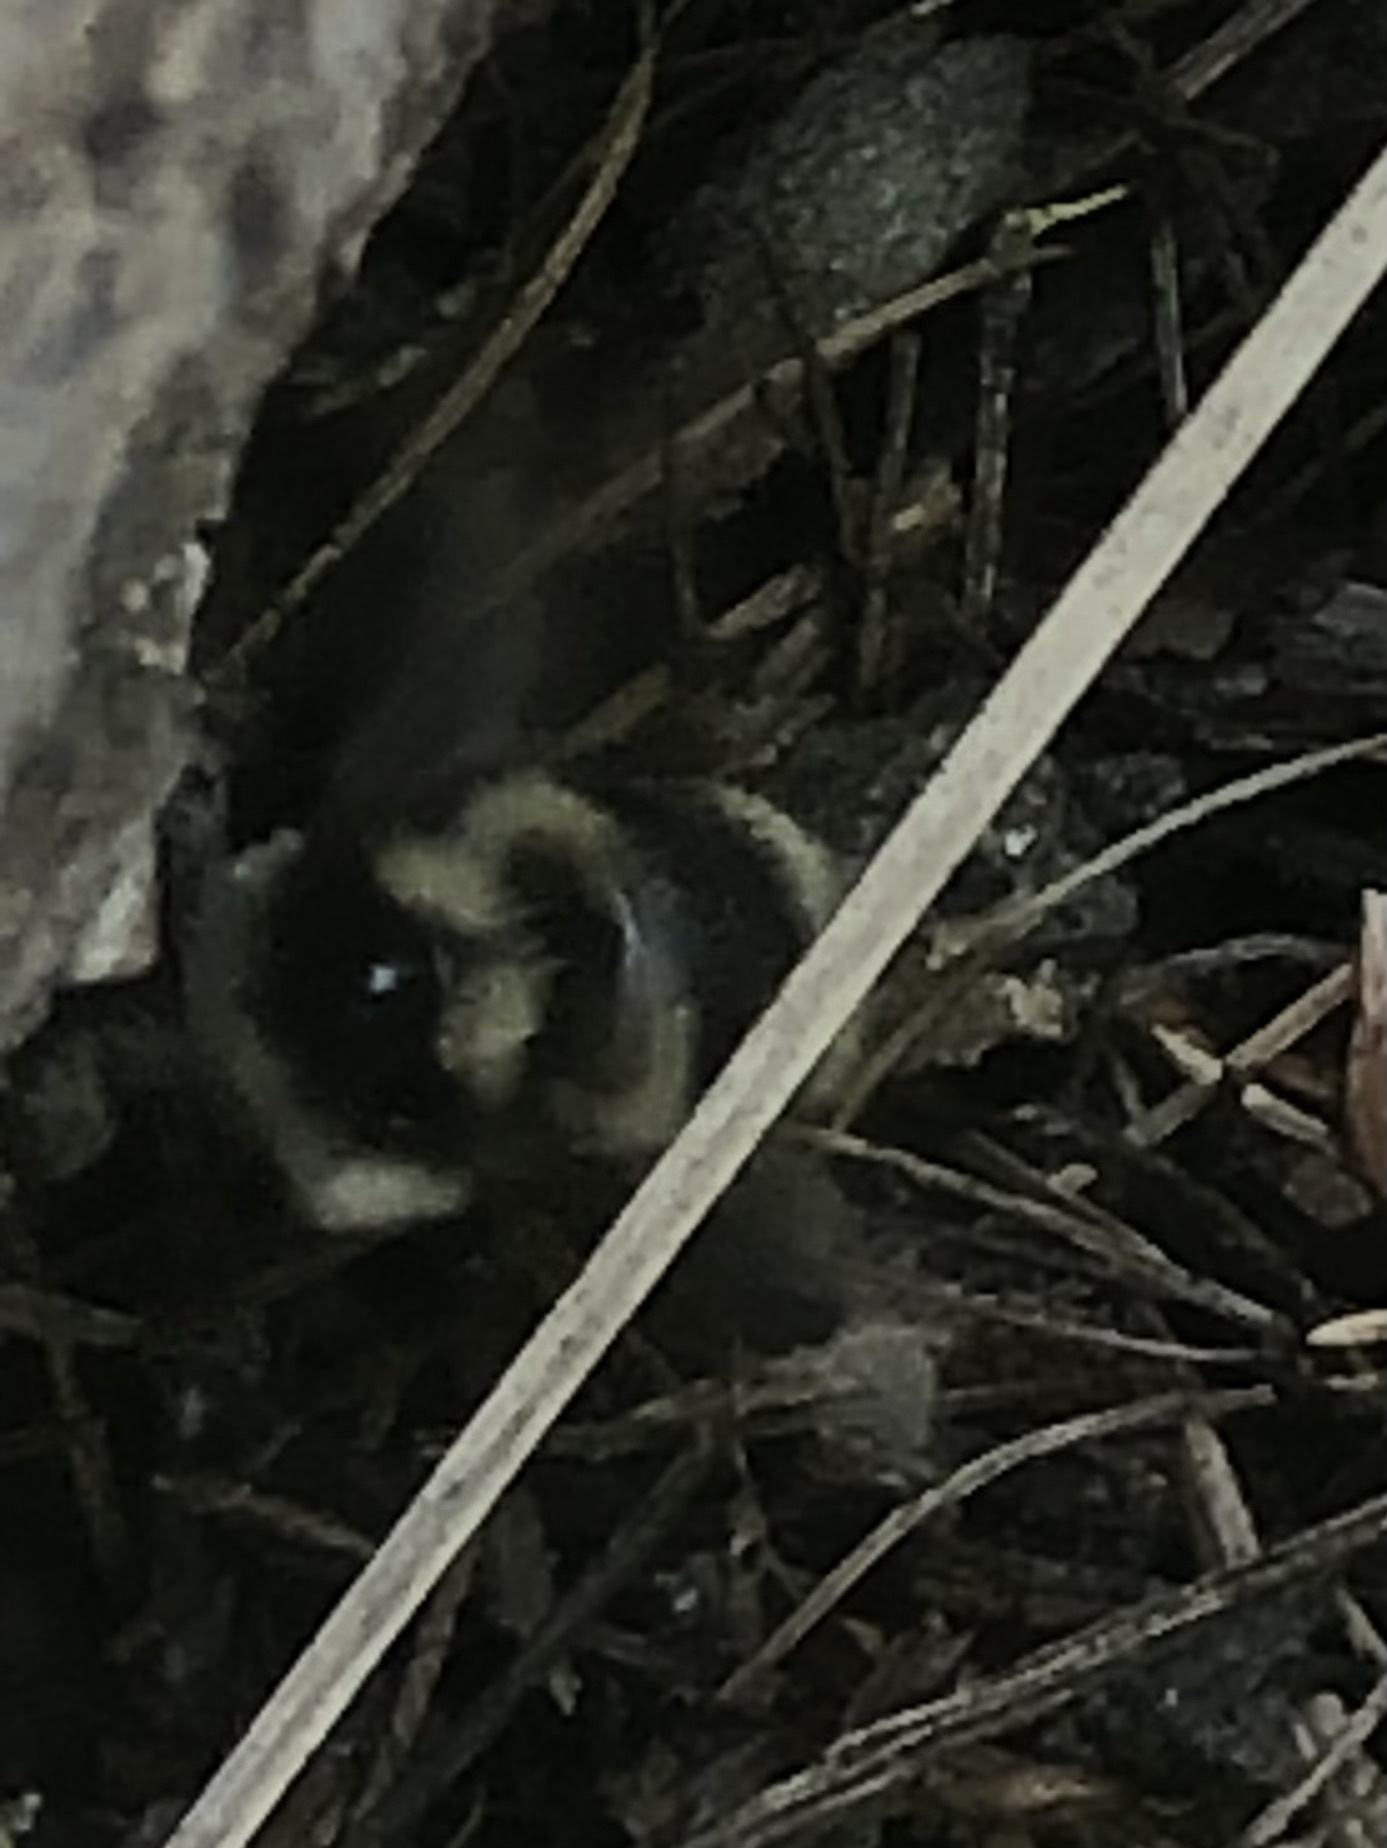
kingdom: Animalia
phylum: Arthropoda
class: Insecta
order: Hymenoptera
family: Apidae
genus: Bombus
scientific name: Bombus vancouverensis
